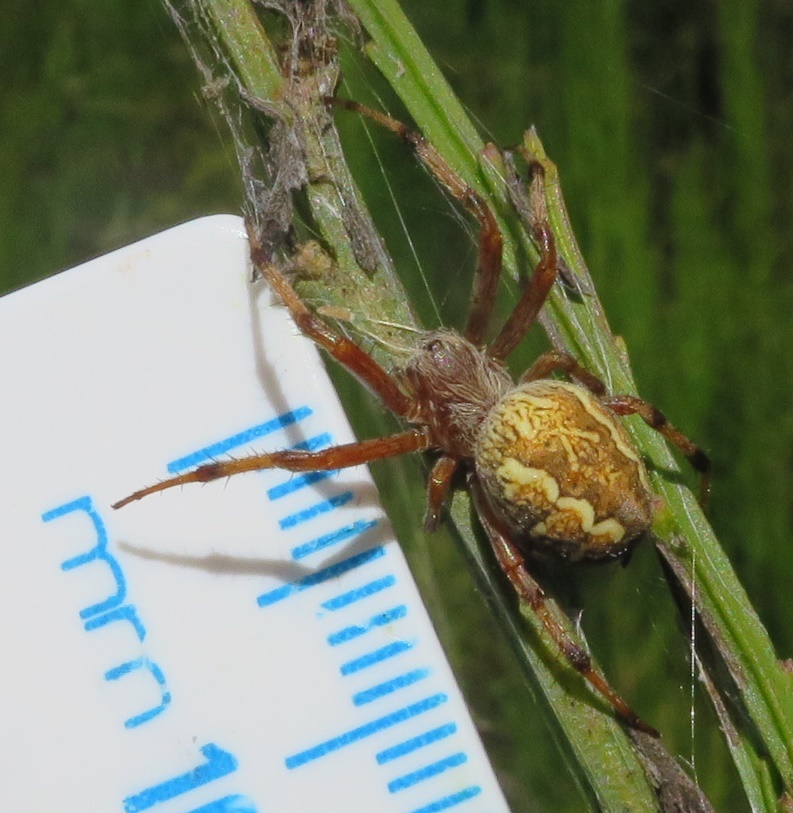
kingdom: Animalia
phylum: Arthropoda
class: Arachnida
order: Araneae
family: Araneidae
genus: Salsa
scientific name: Salsa fuliginata
